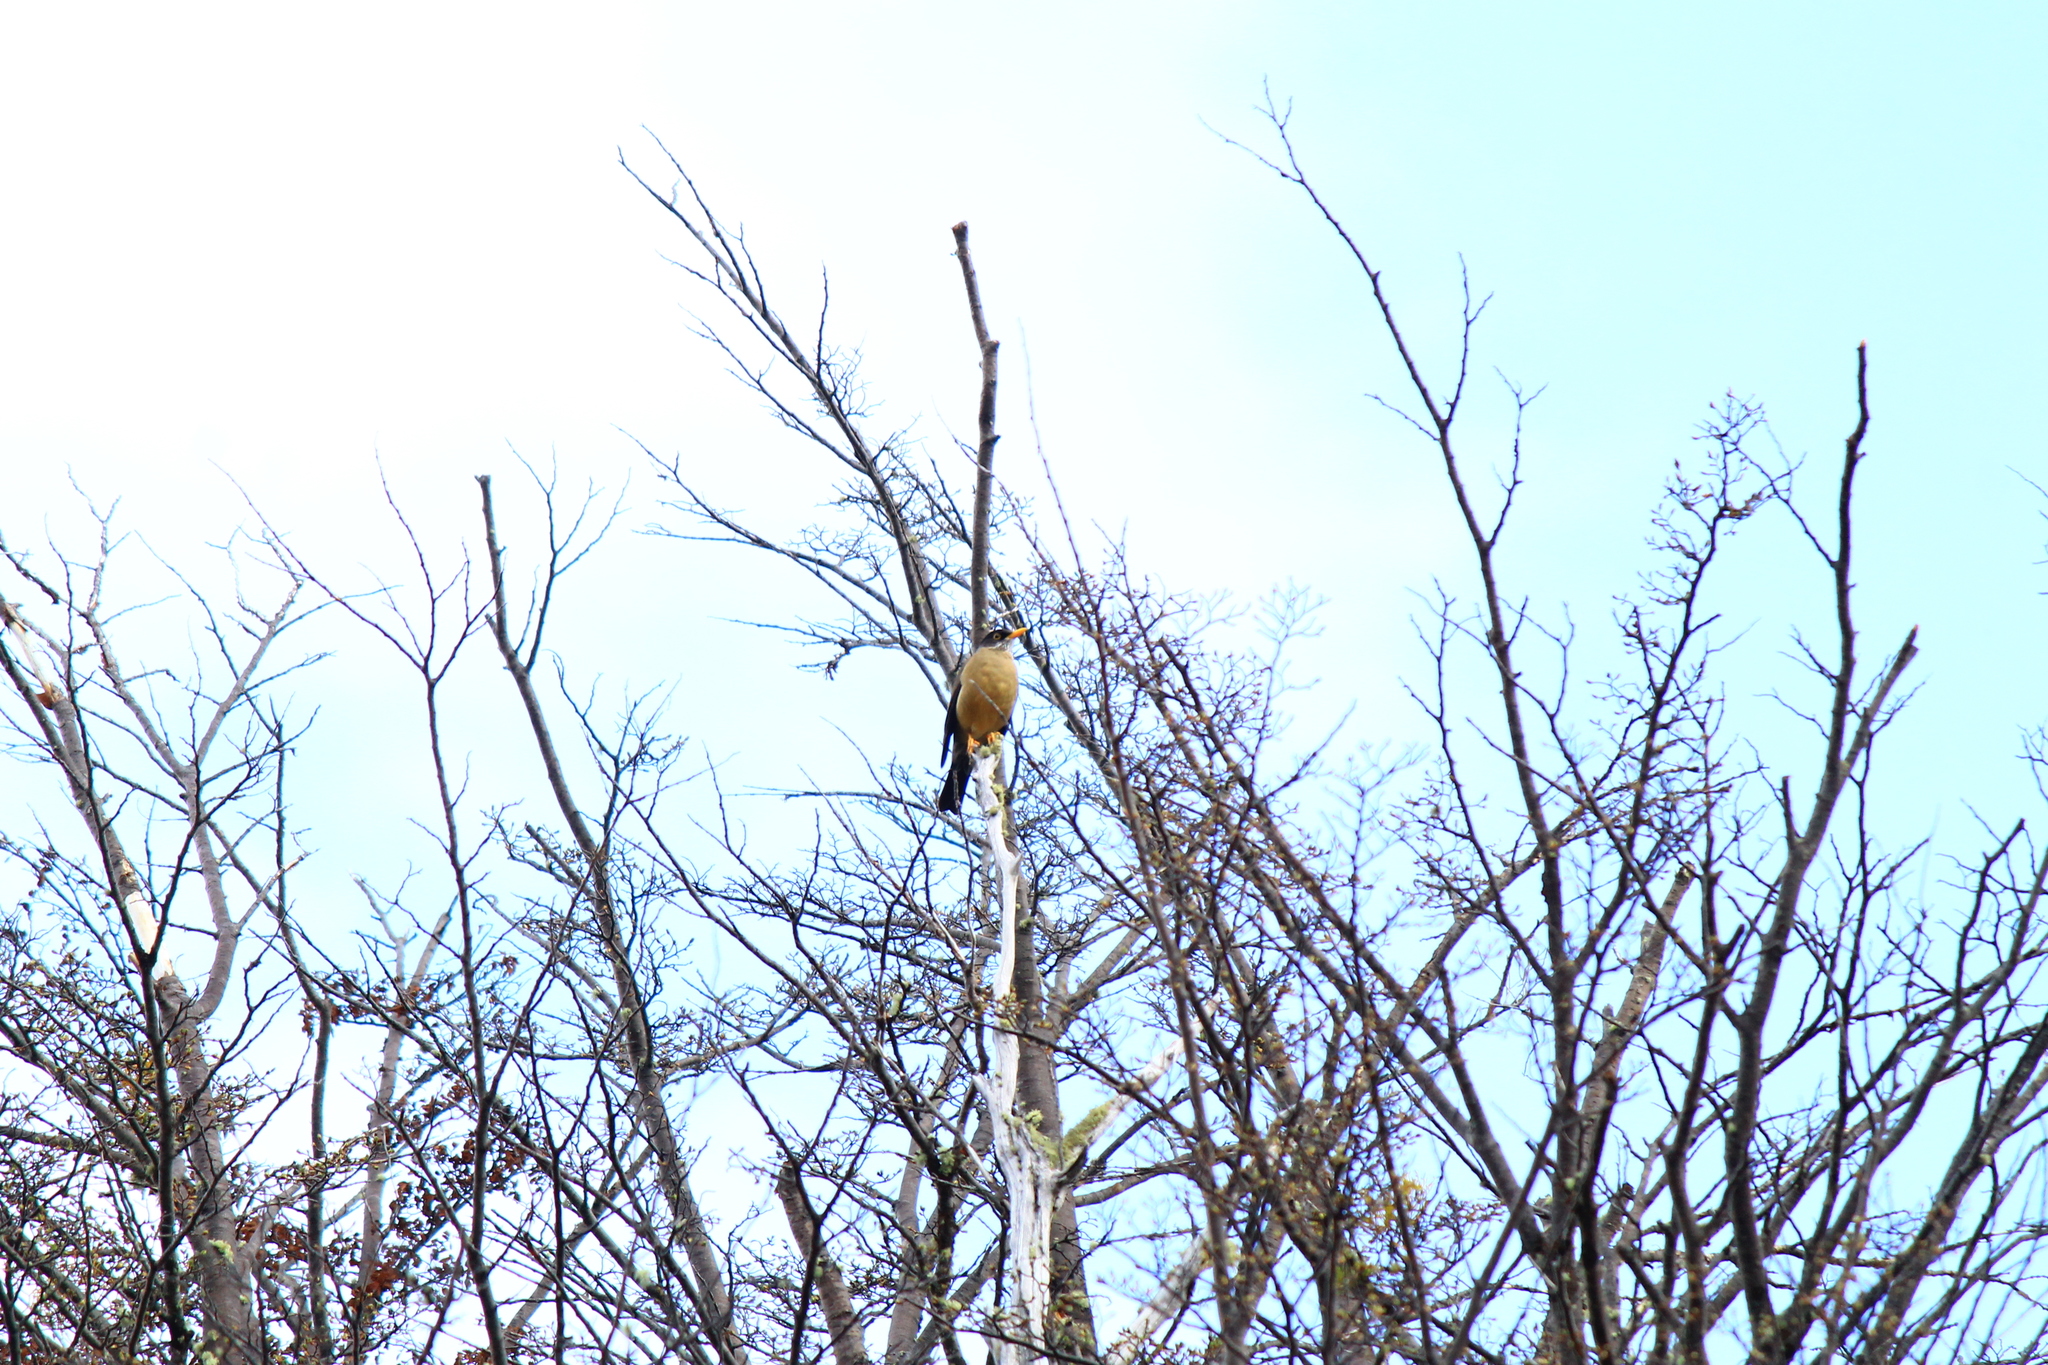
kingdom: Animalia
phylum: Chordata
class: Aves
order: Passeriformes
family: Turdidae
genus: Turdus
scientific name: Turdus falcklandii
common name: Austral thrush
